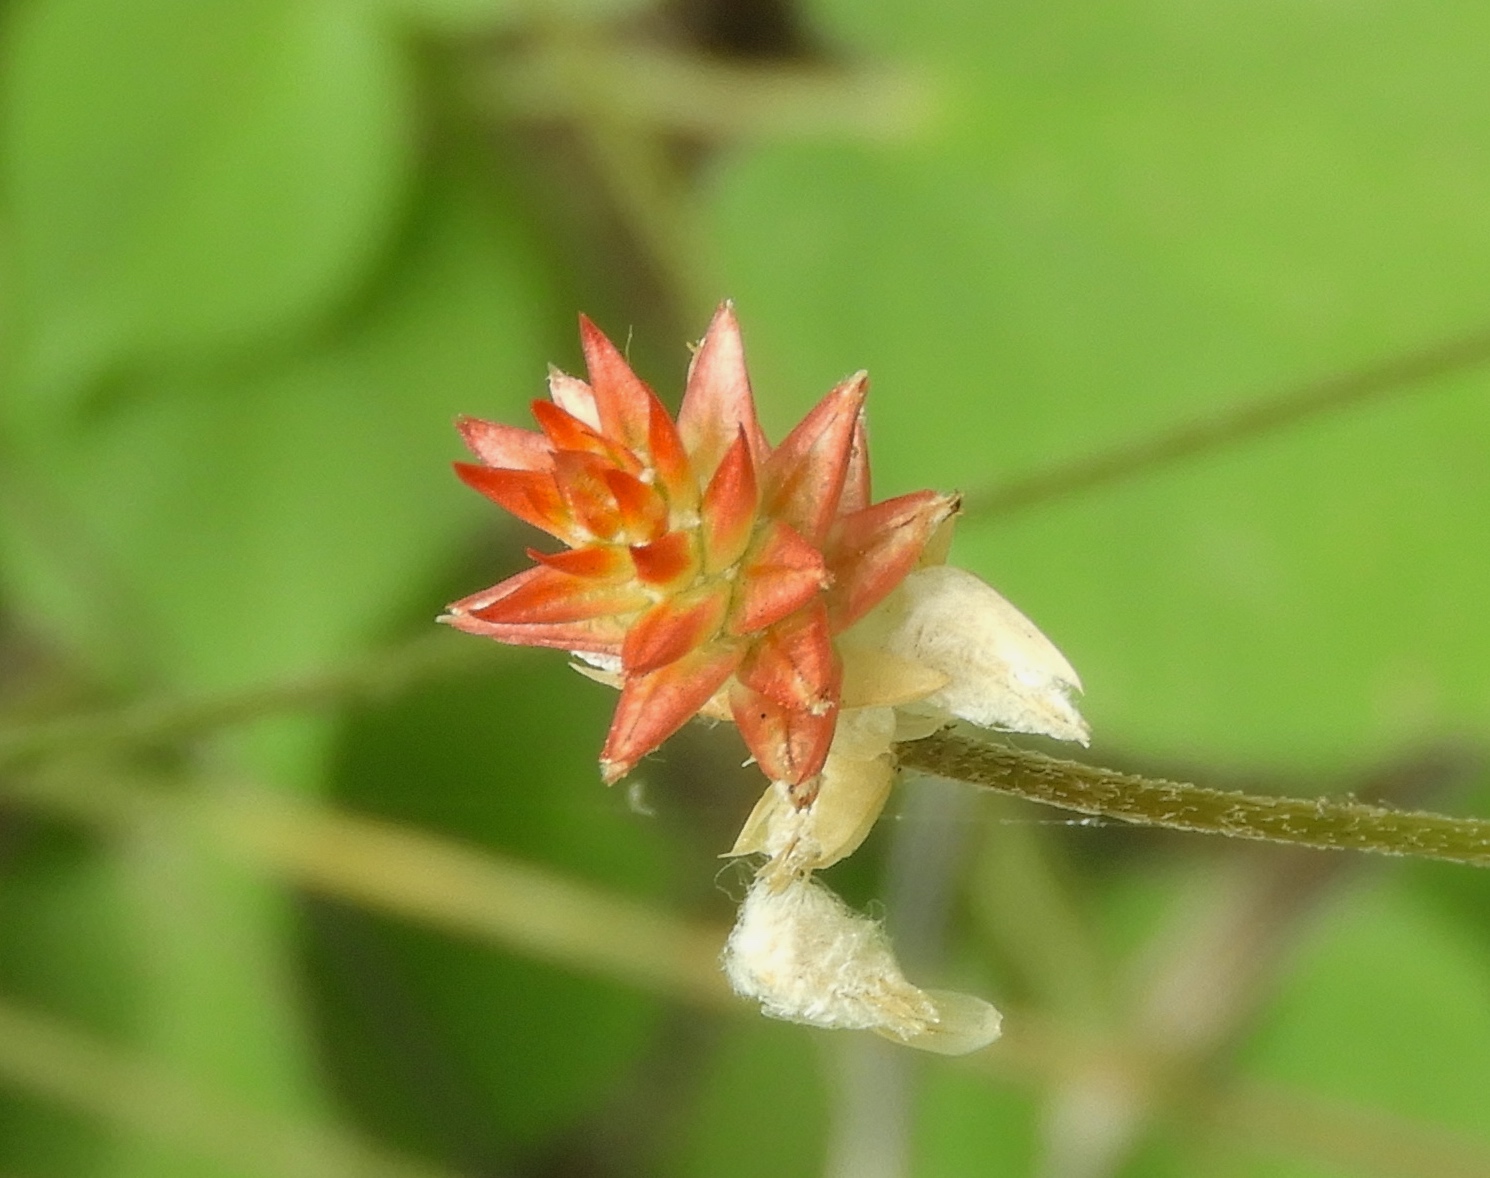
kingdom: Plantae
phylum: Tracheophyta
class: Magnoliopsida
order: Caryophyllales
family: Amaranthaceae
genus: Gomphrena
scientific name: Gomphrena
